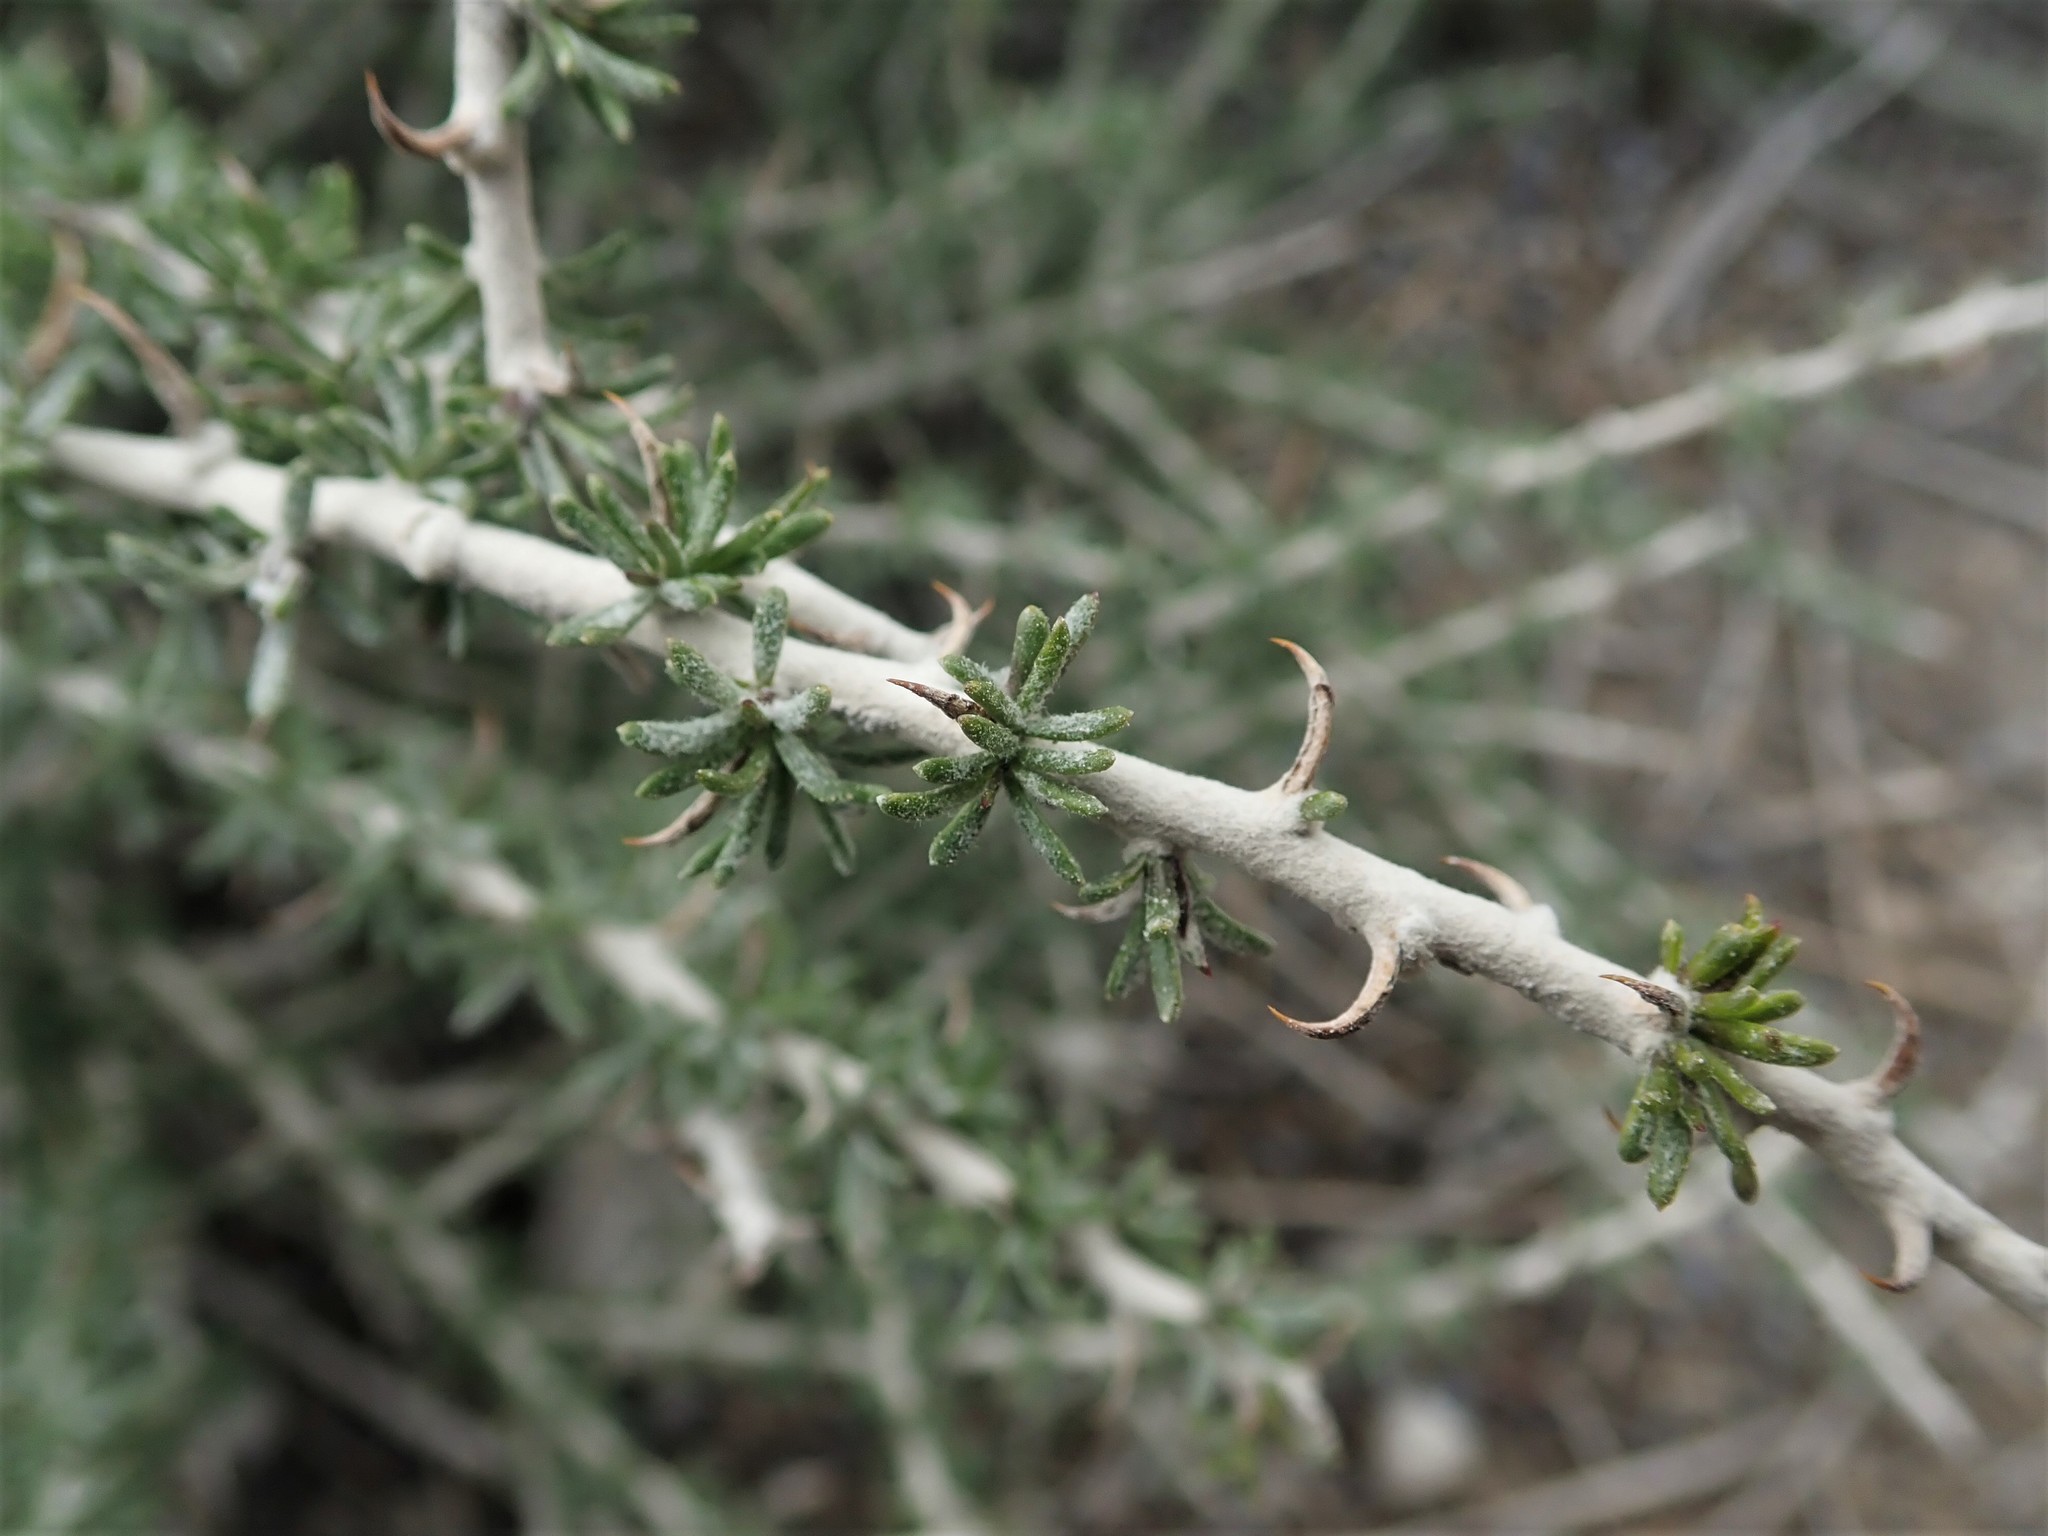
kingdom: Plantae
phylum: Tracheophyta
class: Magnoliopsida
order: Asterales
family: Asteraceae
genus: Tetradymia
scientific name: Tetradymia spinosa
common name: Thorny horsebrush
